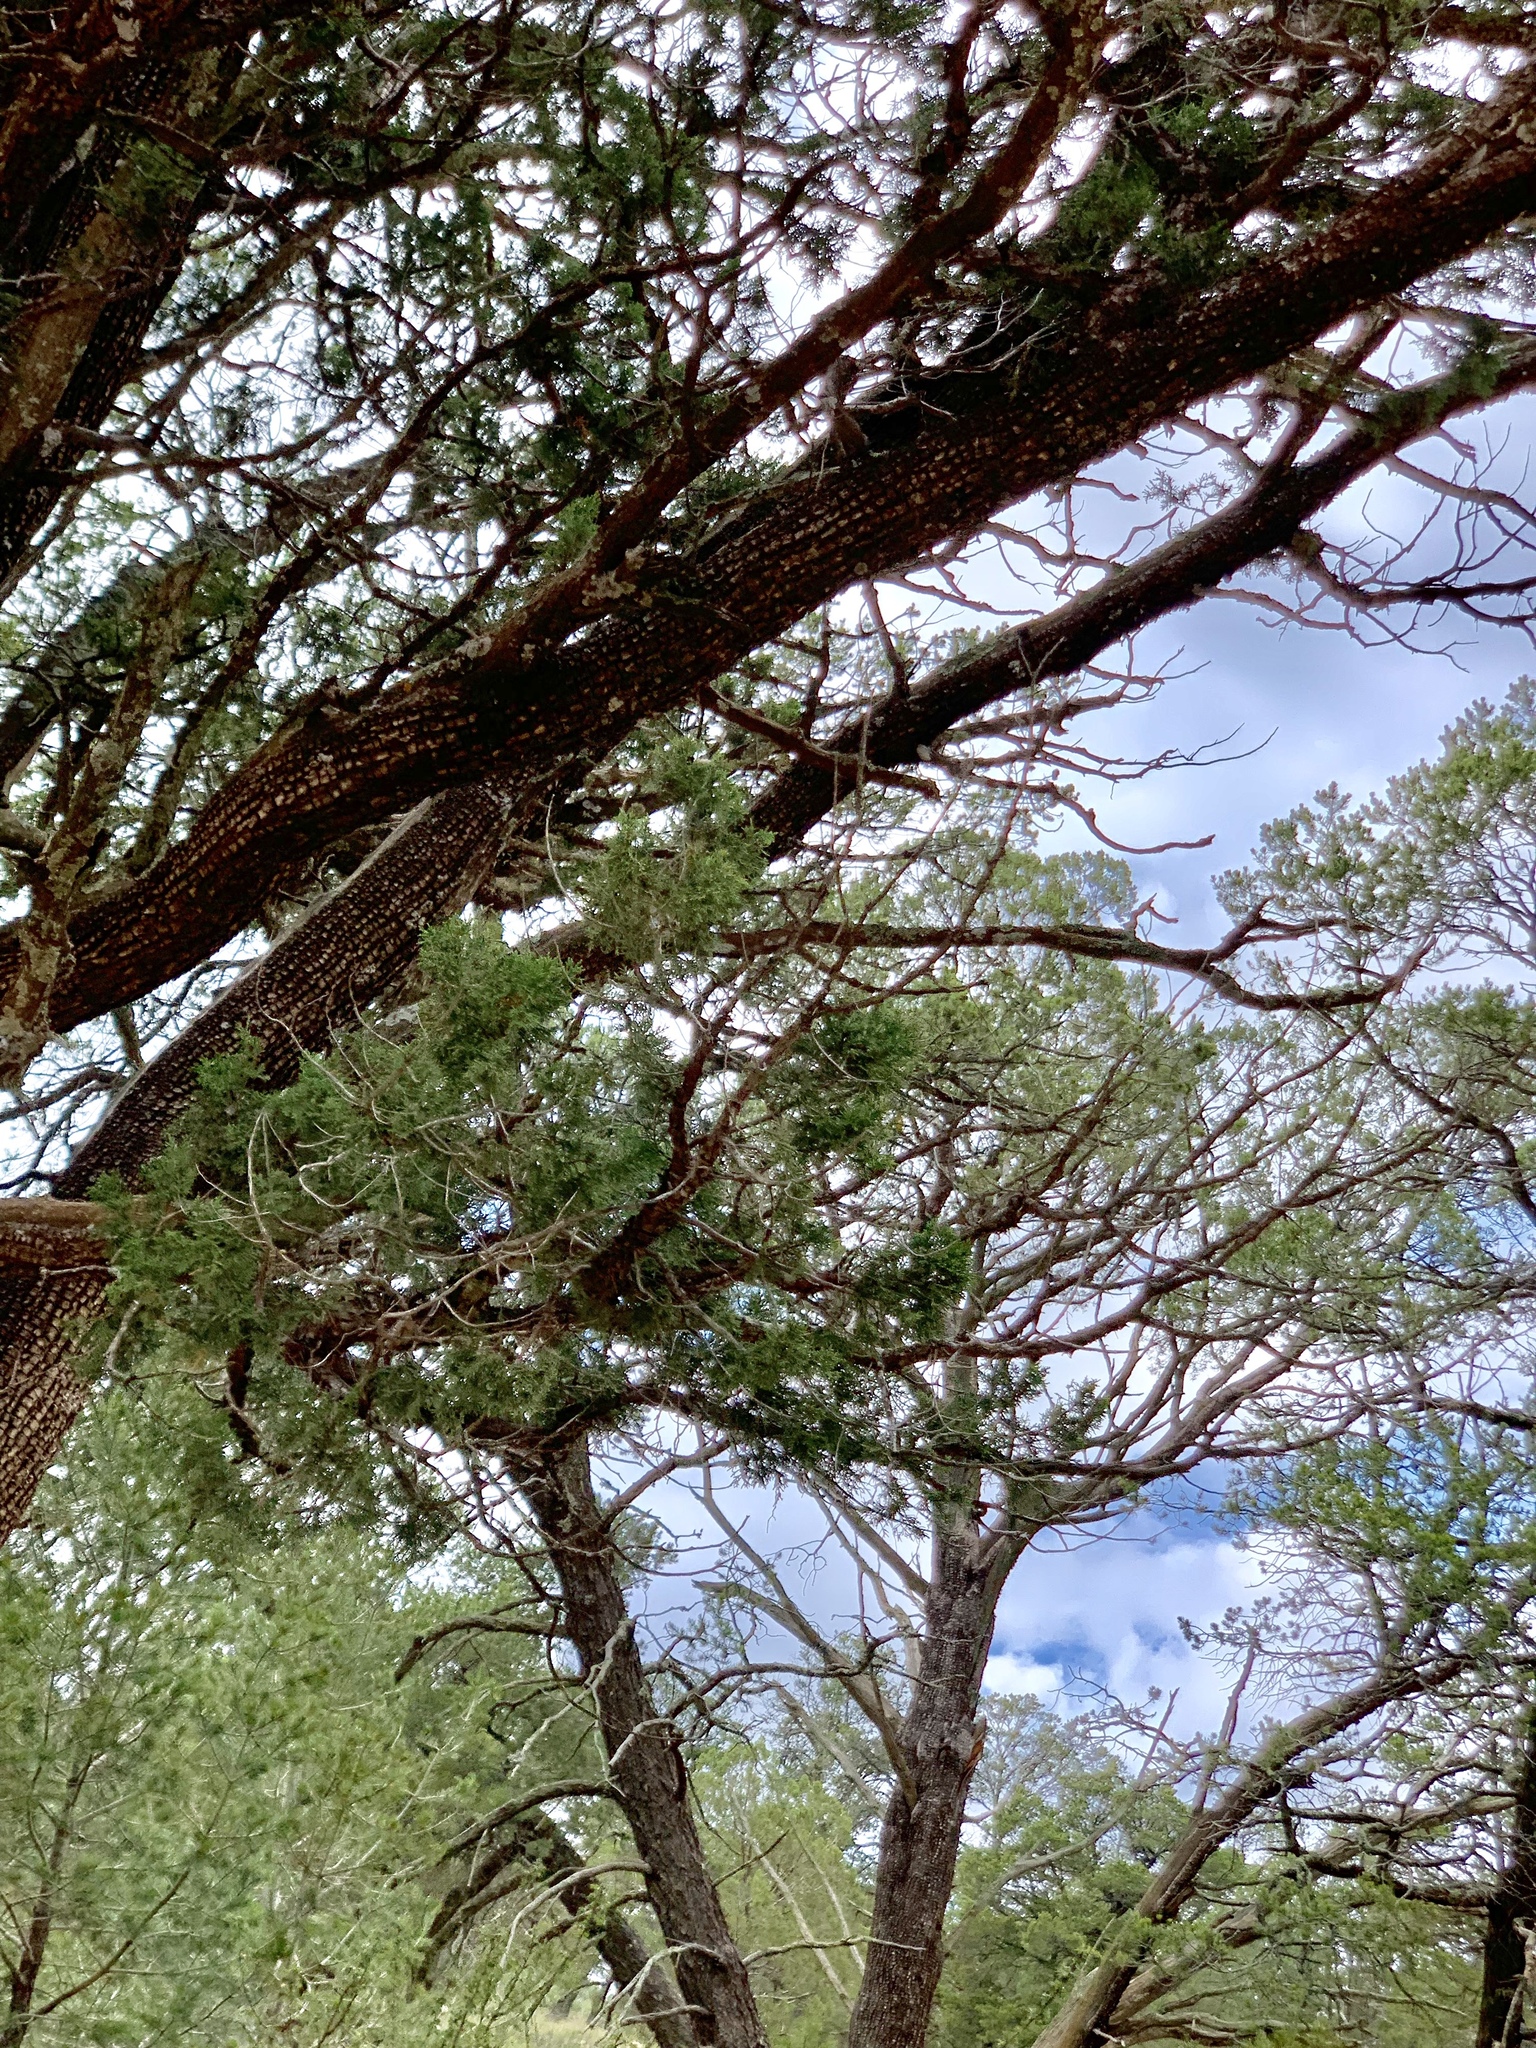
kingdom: Plantae
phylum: Tracheophyta
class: Pinopsida
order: Pinales
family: Cupressaceae
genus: Juniperus
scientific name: Juniperus deppeana
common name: Alligator juniper
